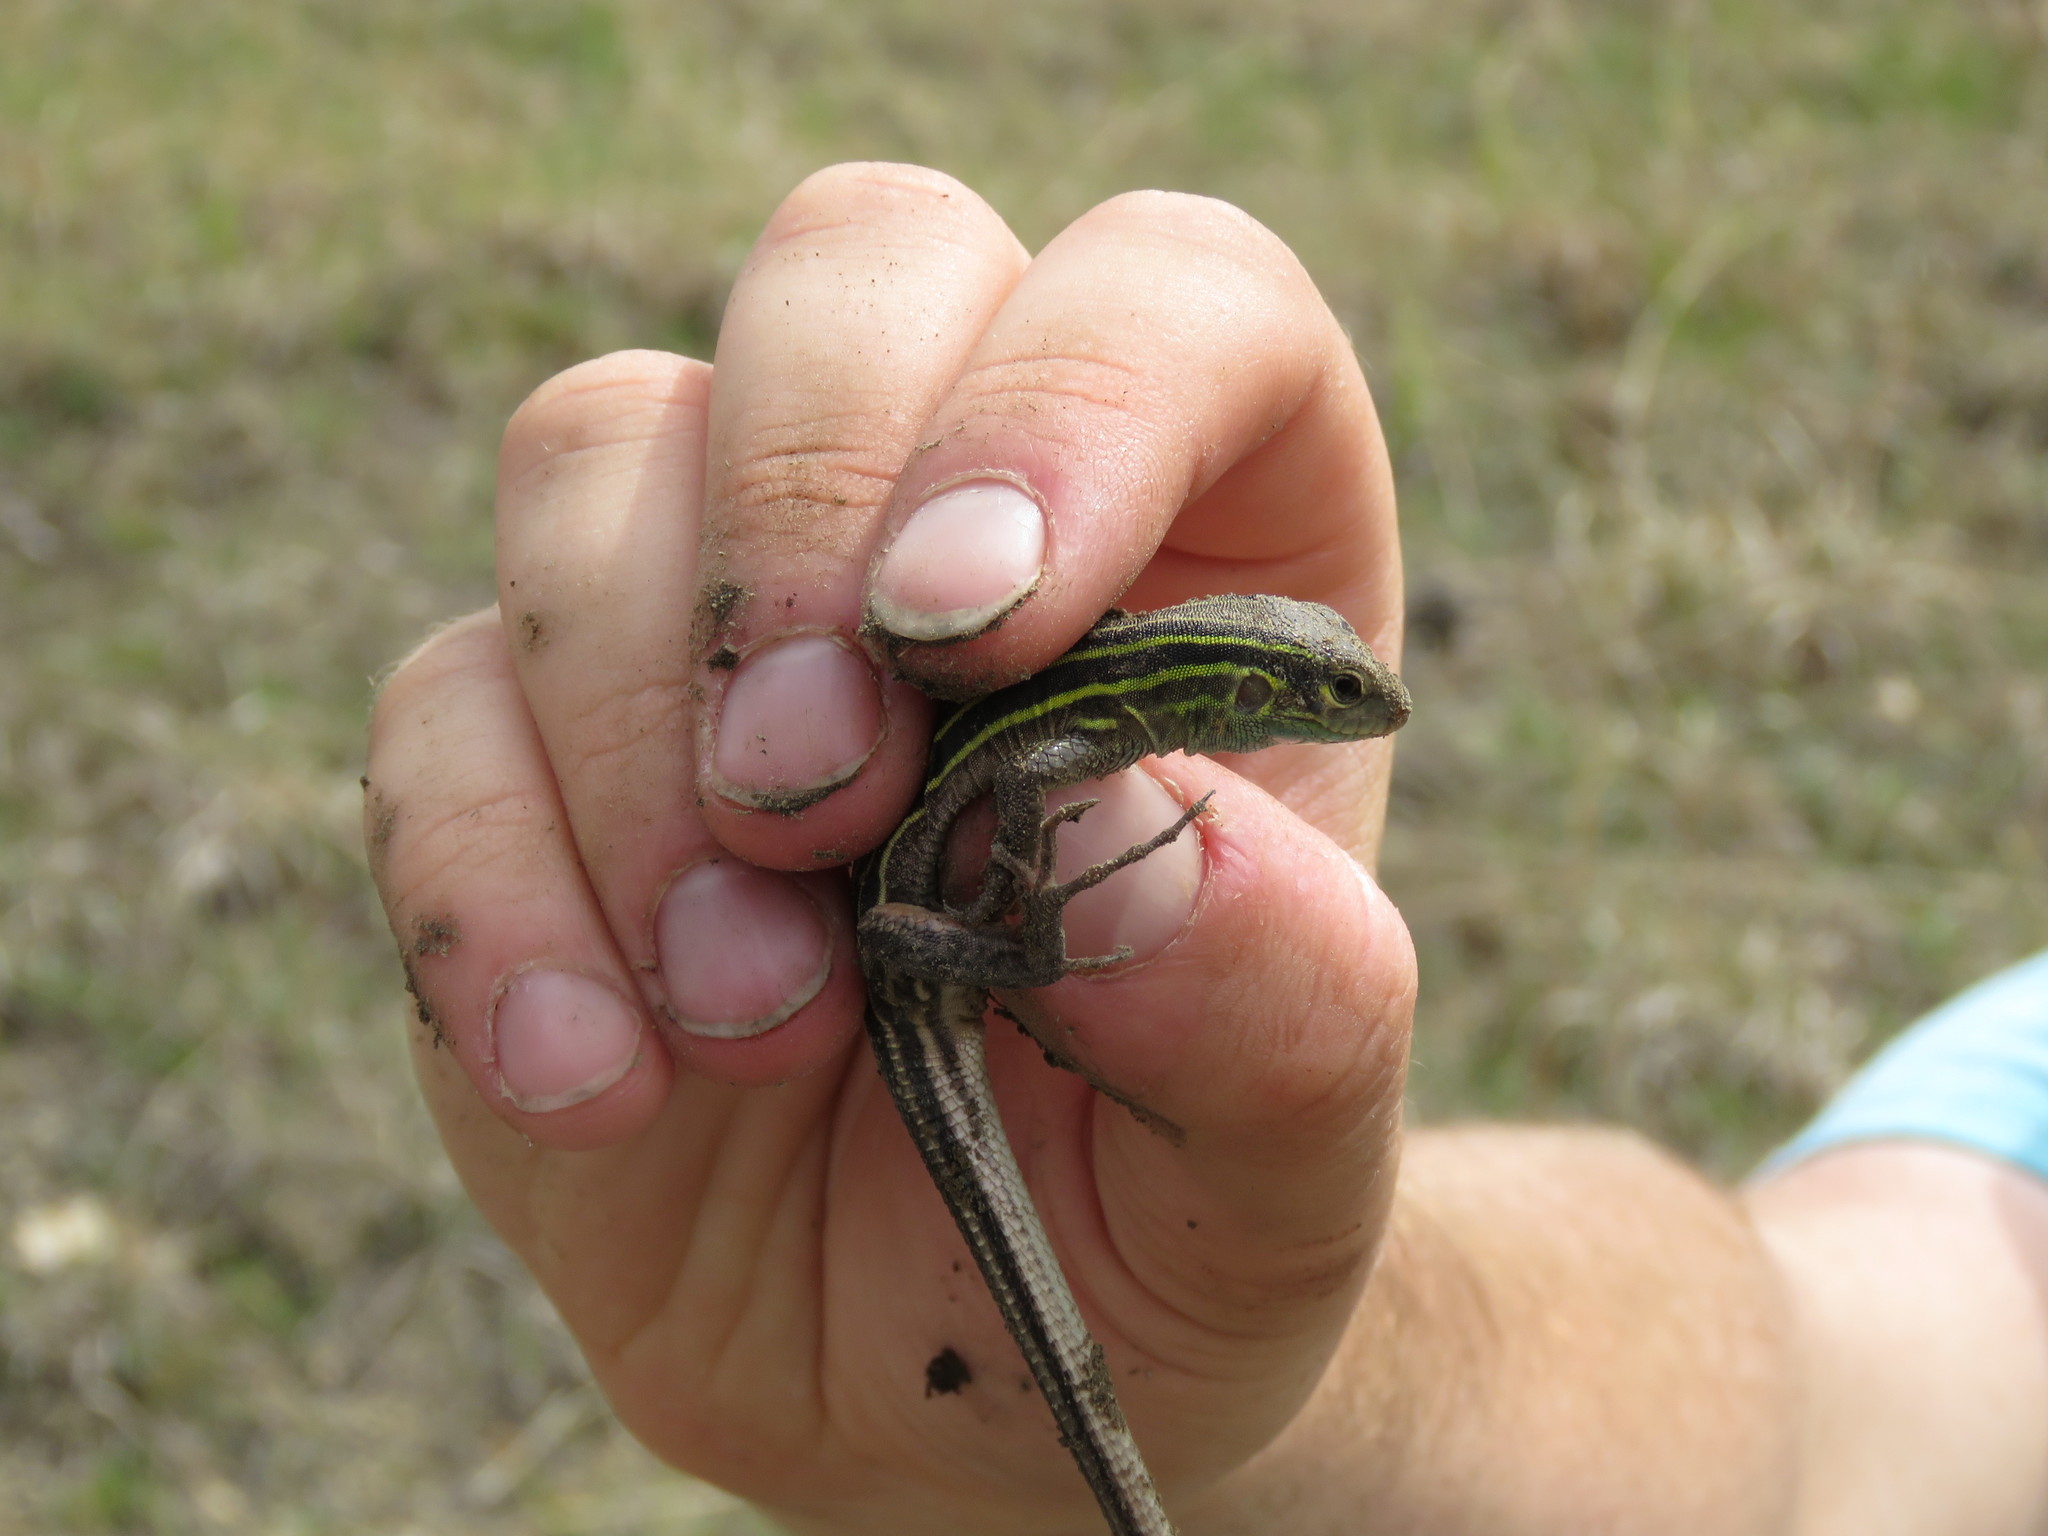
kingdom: Animalia
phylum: Chordata
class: Squamata
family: Teiidae
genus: Aspidoscelis
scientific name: Aspidoscelis sexlineatus
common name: Six-lined racerunner
